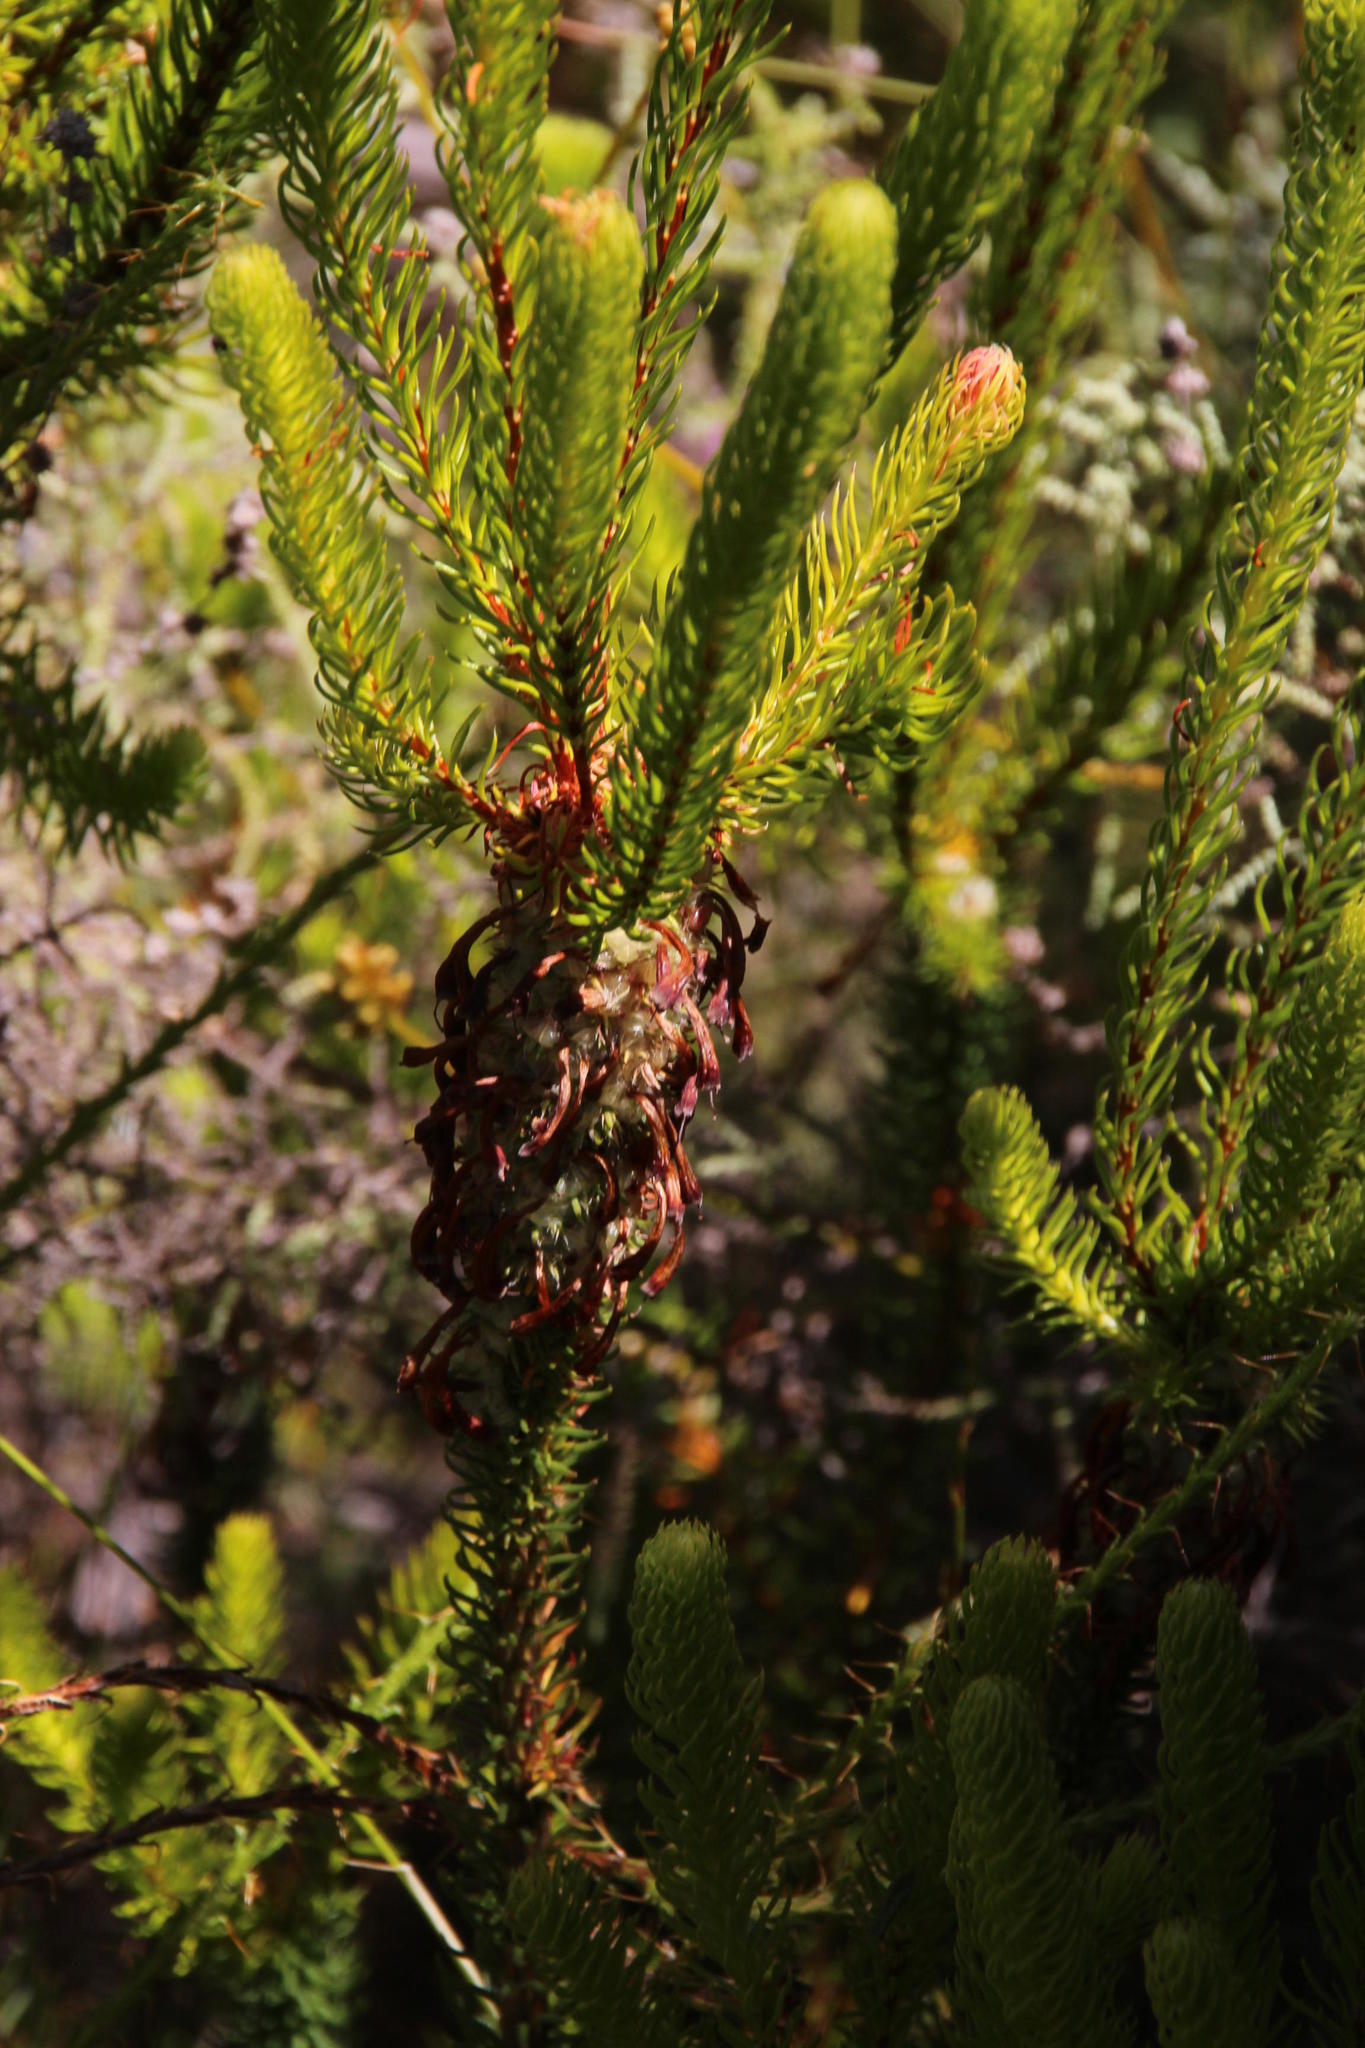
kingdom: Plantae
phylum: Tracheophyta
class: Magnoliopsida
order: Ericales
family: Ericaceae
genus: Erica
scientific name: Erica sessiliflora
